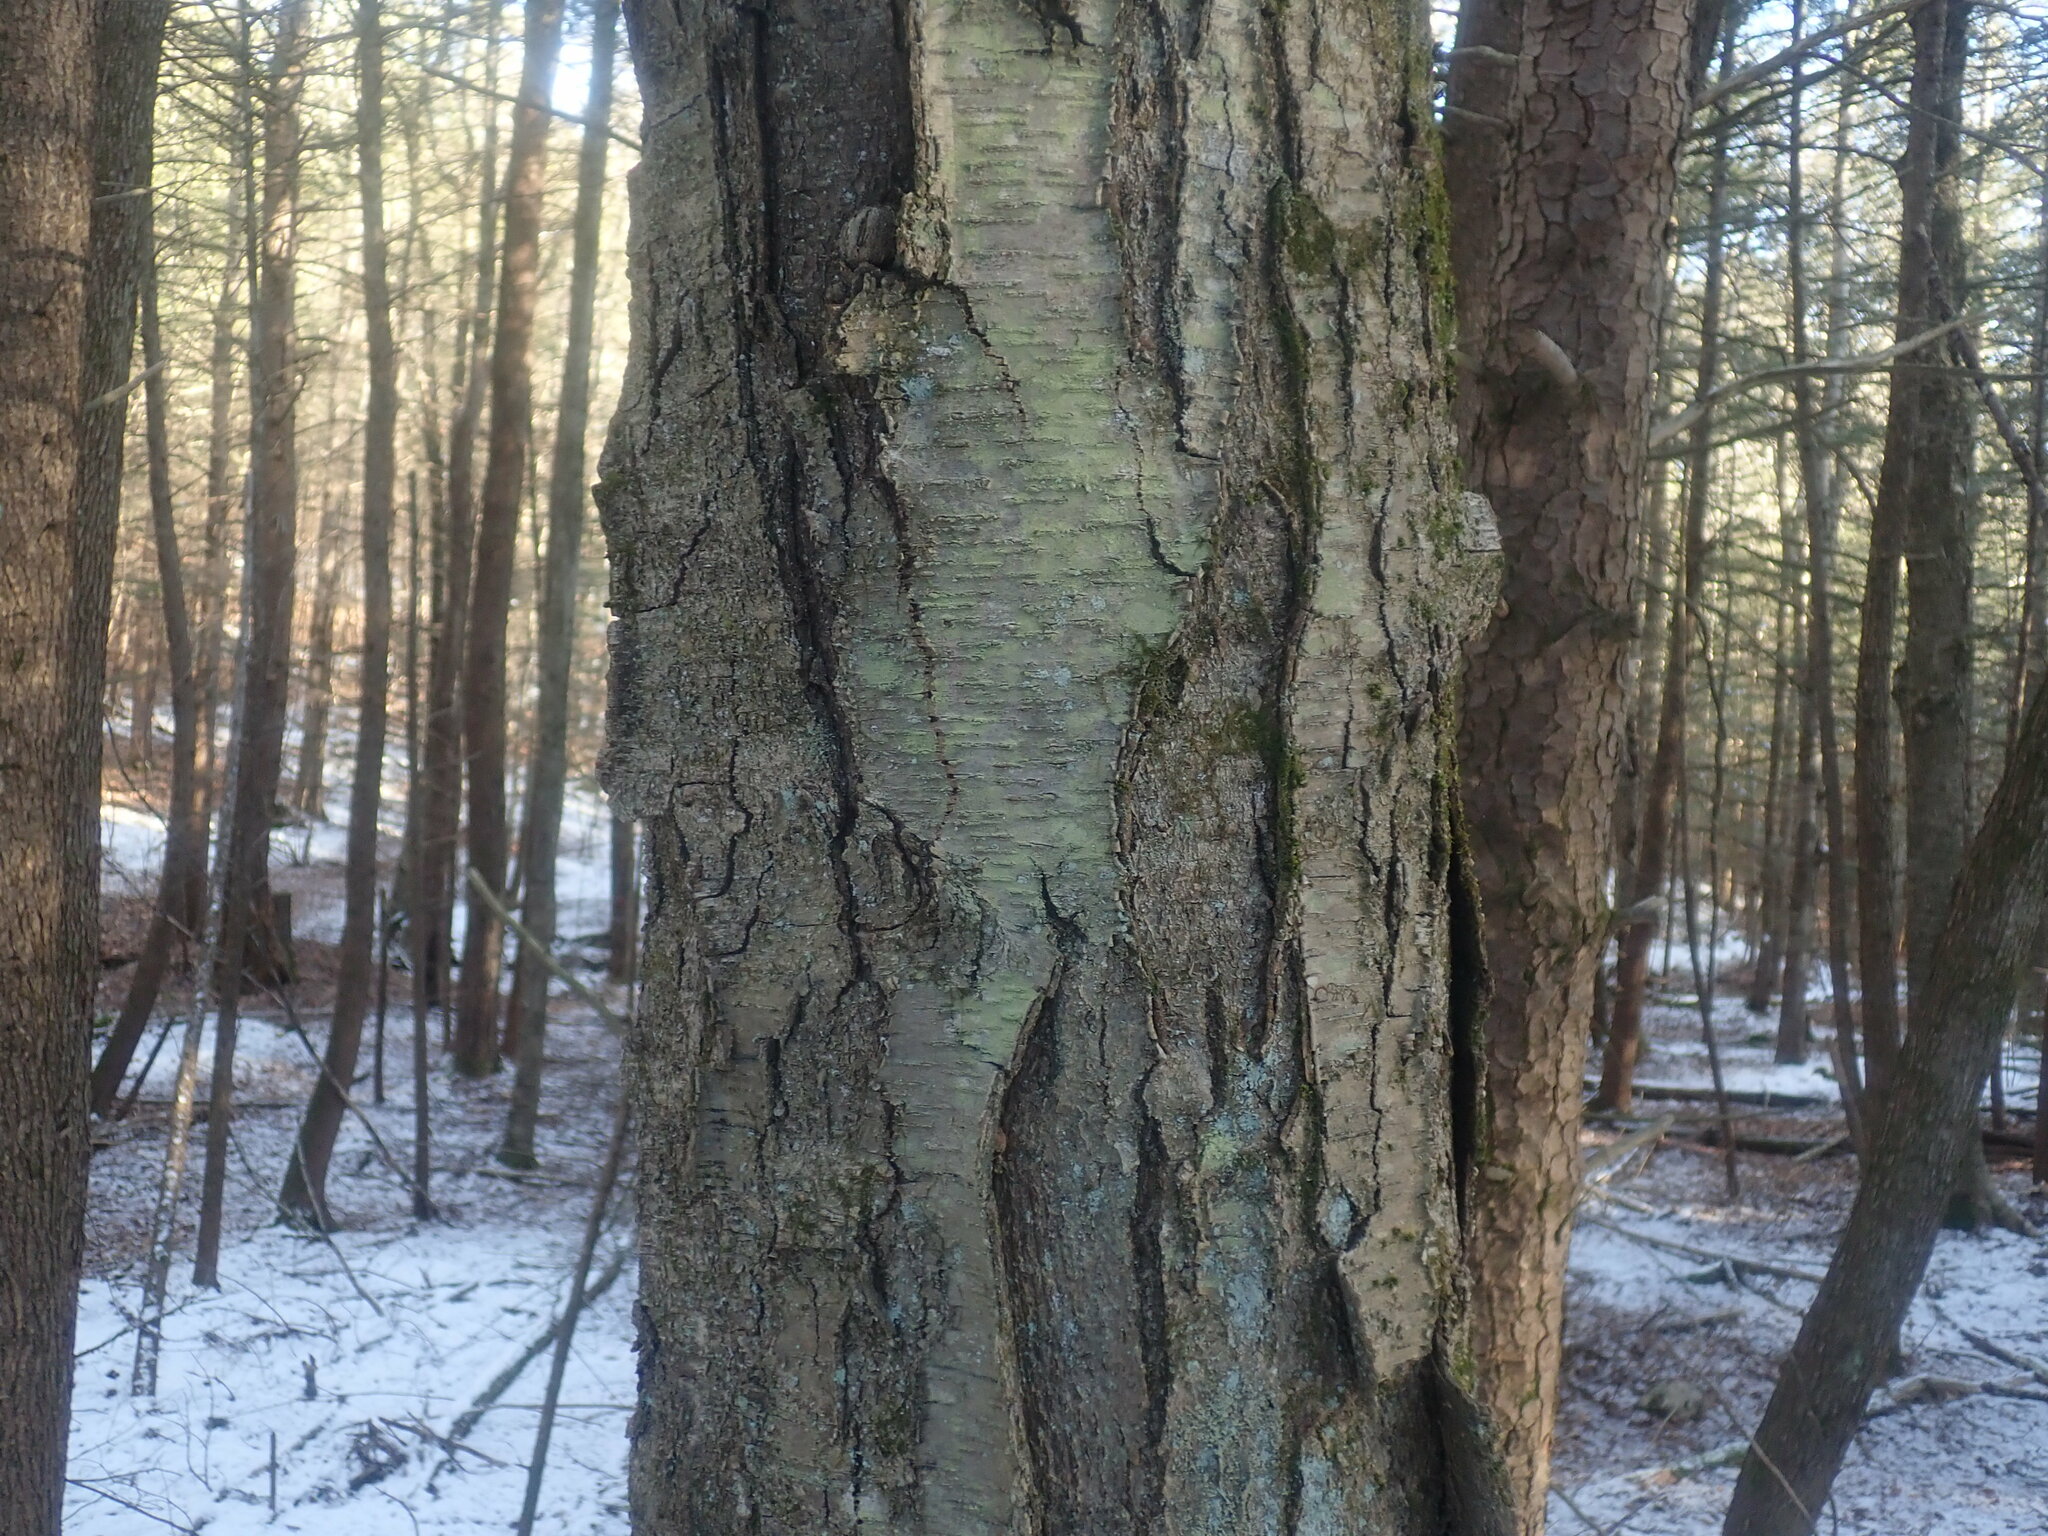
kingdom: Plantae
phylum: Tracheophyta
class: Magnoliopsida
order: Fagales
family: Betulaceae
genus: Betula
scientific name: Betula lenta
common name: Black birch
